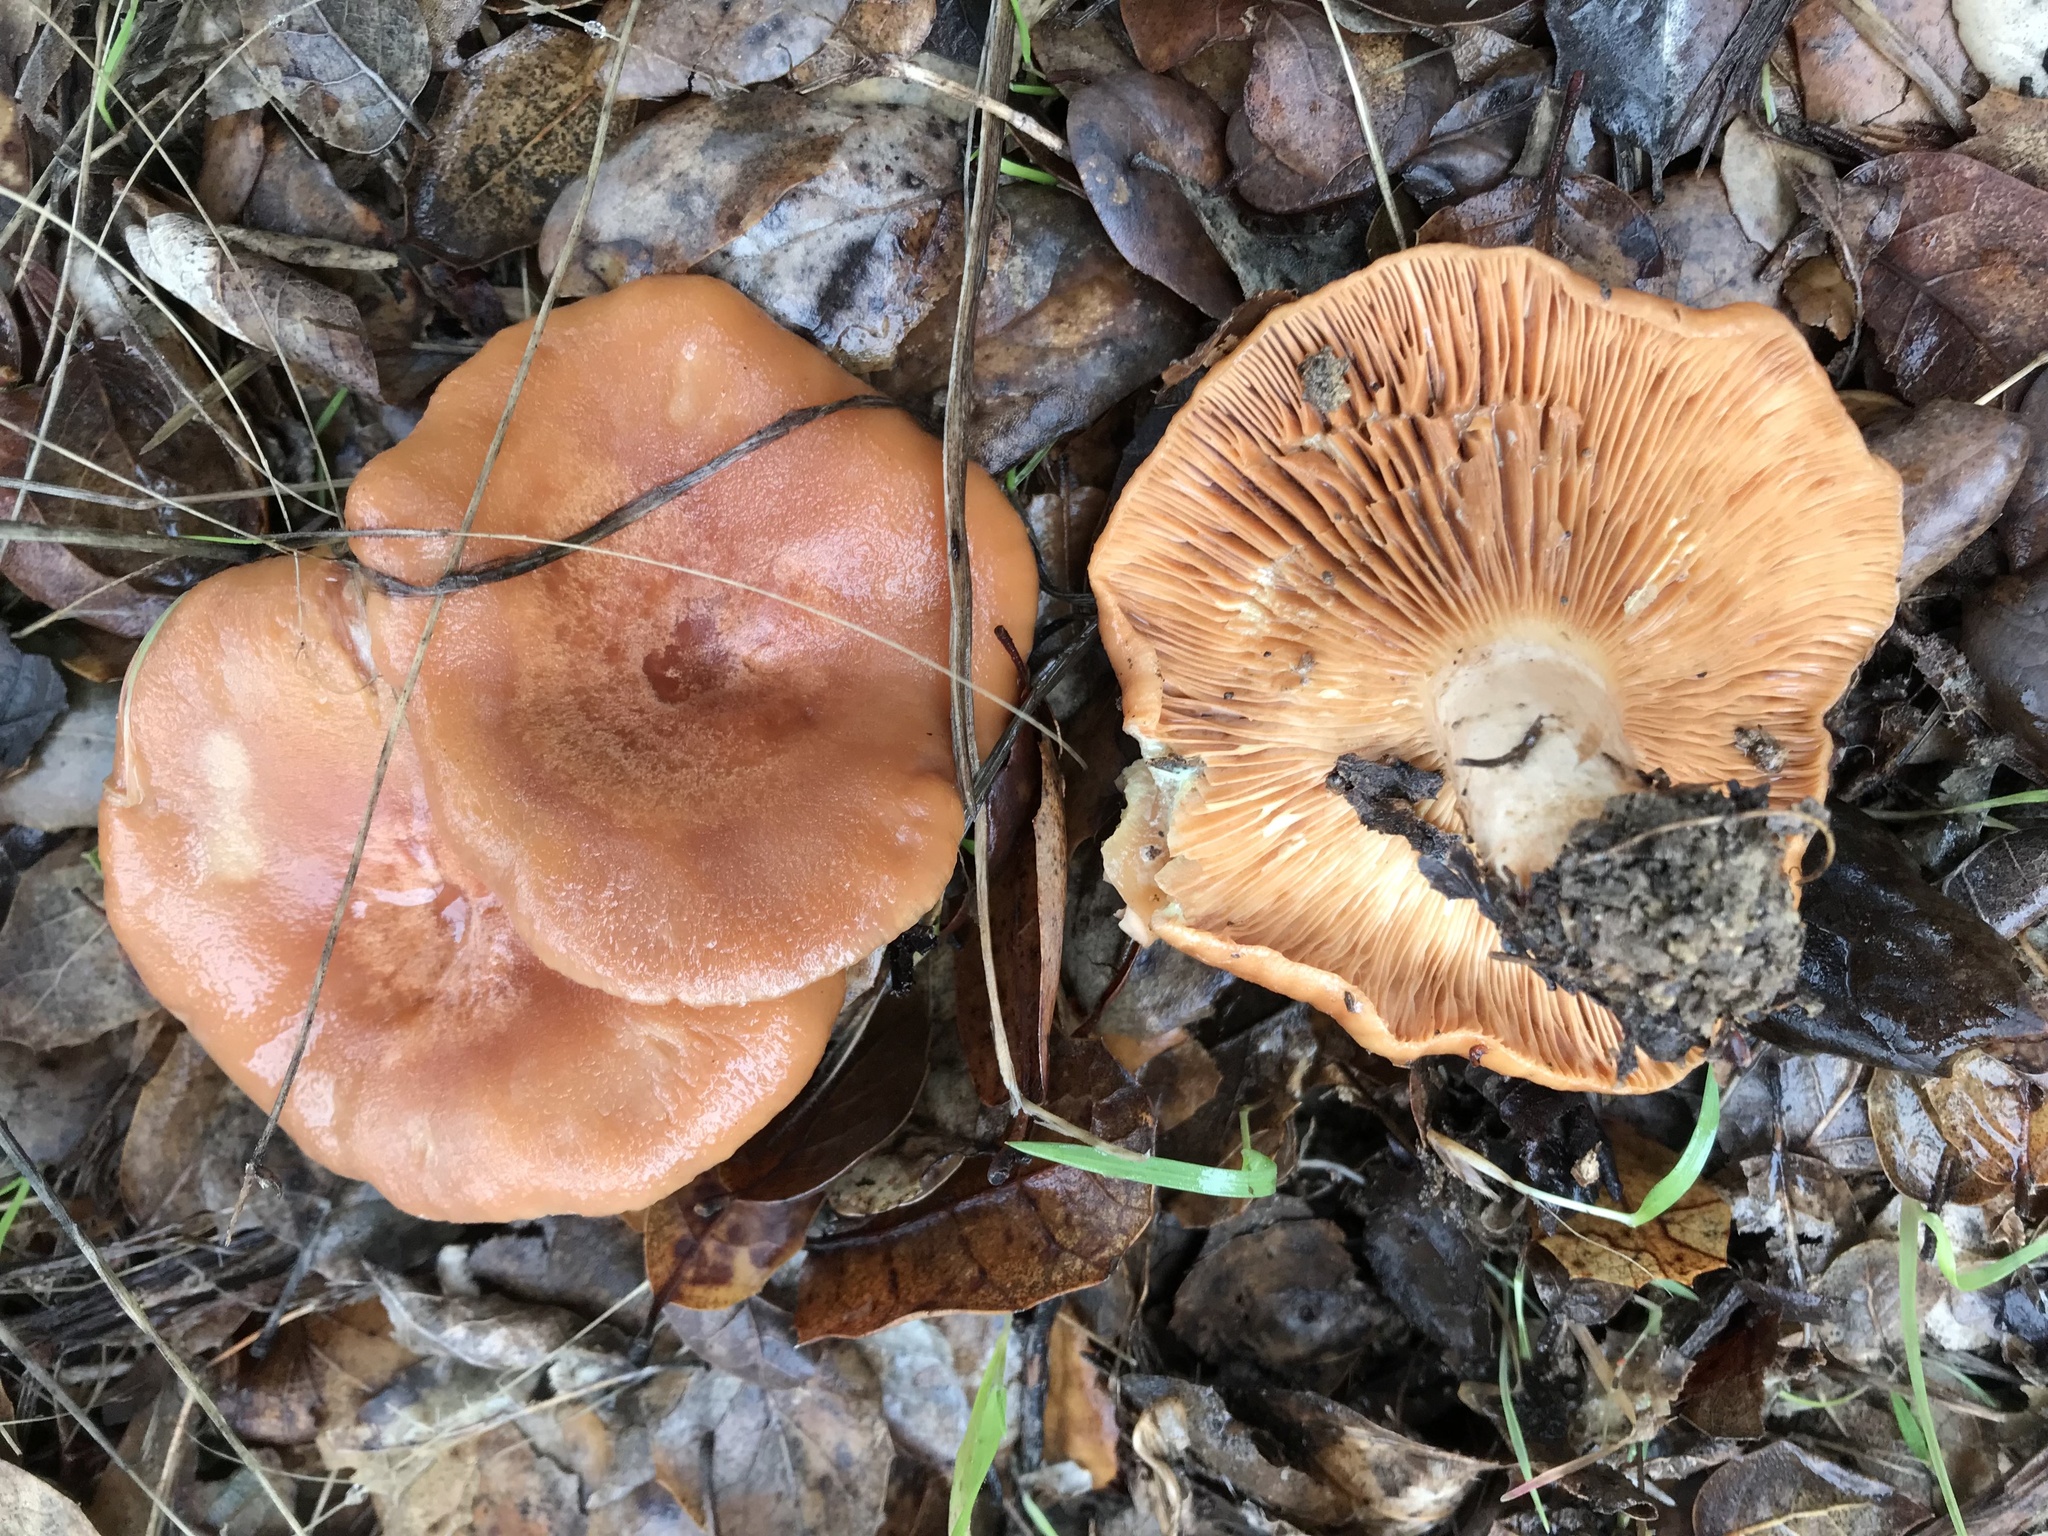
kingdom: Fungi
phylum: Basidiomycota
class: Agaricomycetes
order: Russulales
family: Russulaceae
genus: Lactarius
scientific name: Lactarius xanthogalactus
